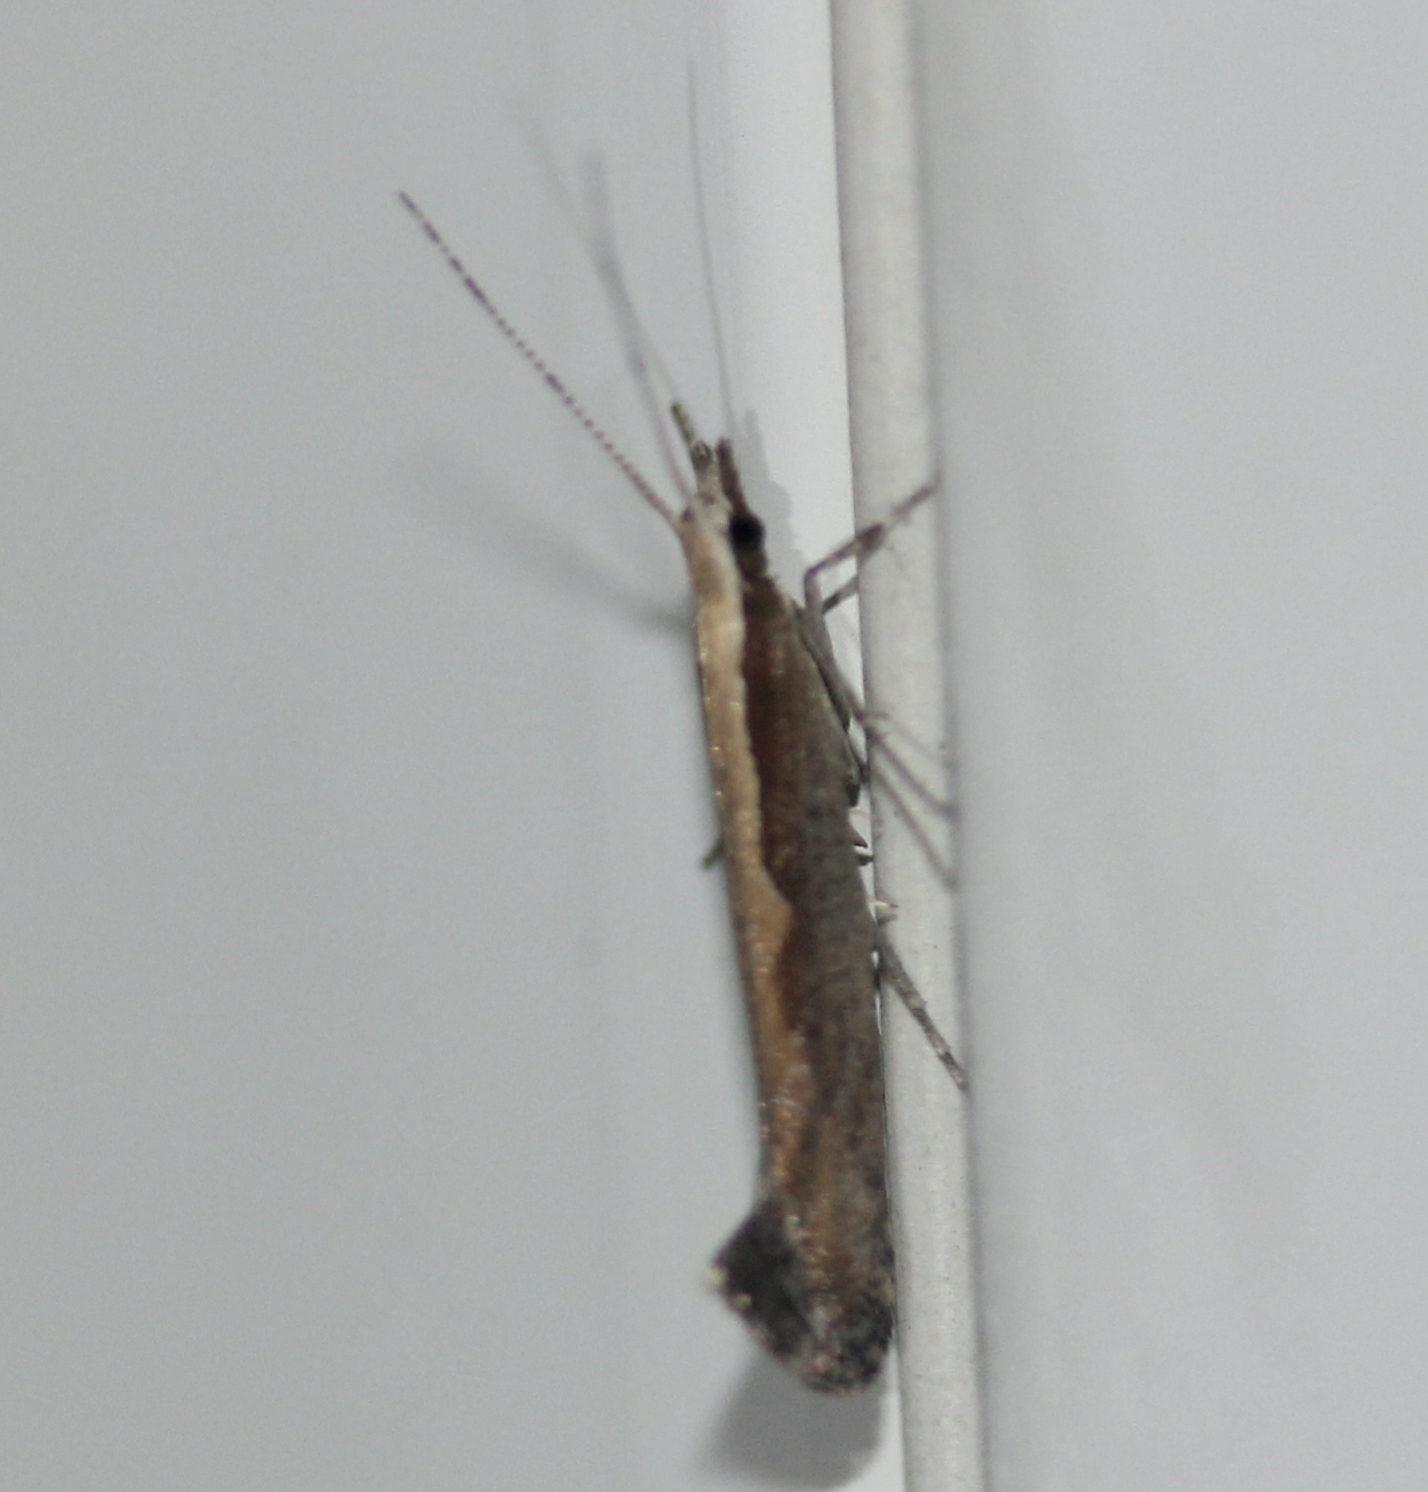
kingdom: Animalia
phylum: Arthropoda
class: Insecta
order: Lepidoptera
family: Plutellidae
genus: Plutella
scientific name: Plutella xylostella
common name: Diamond-back moth
